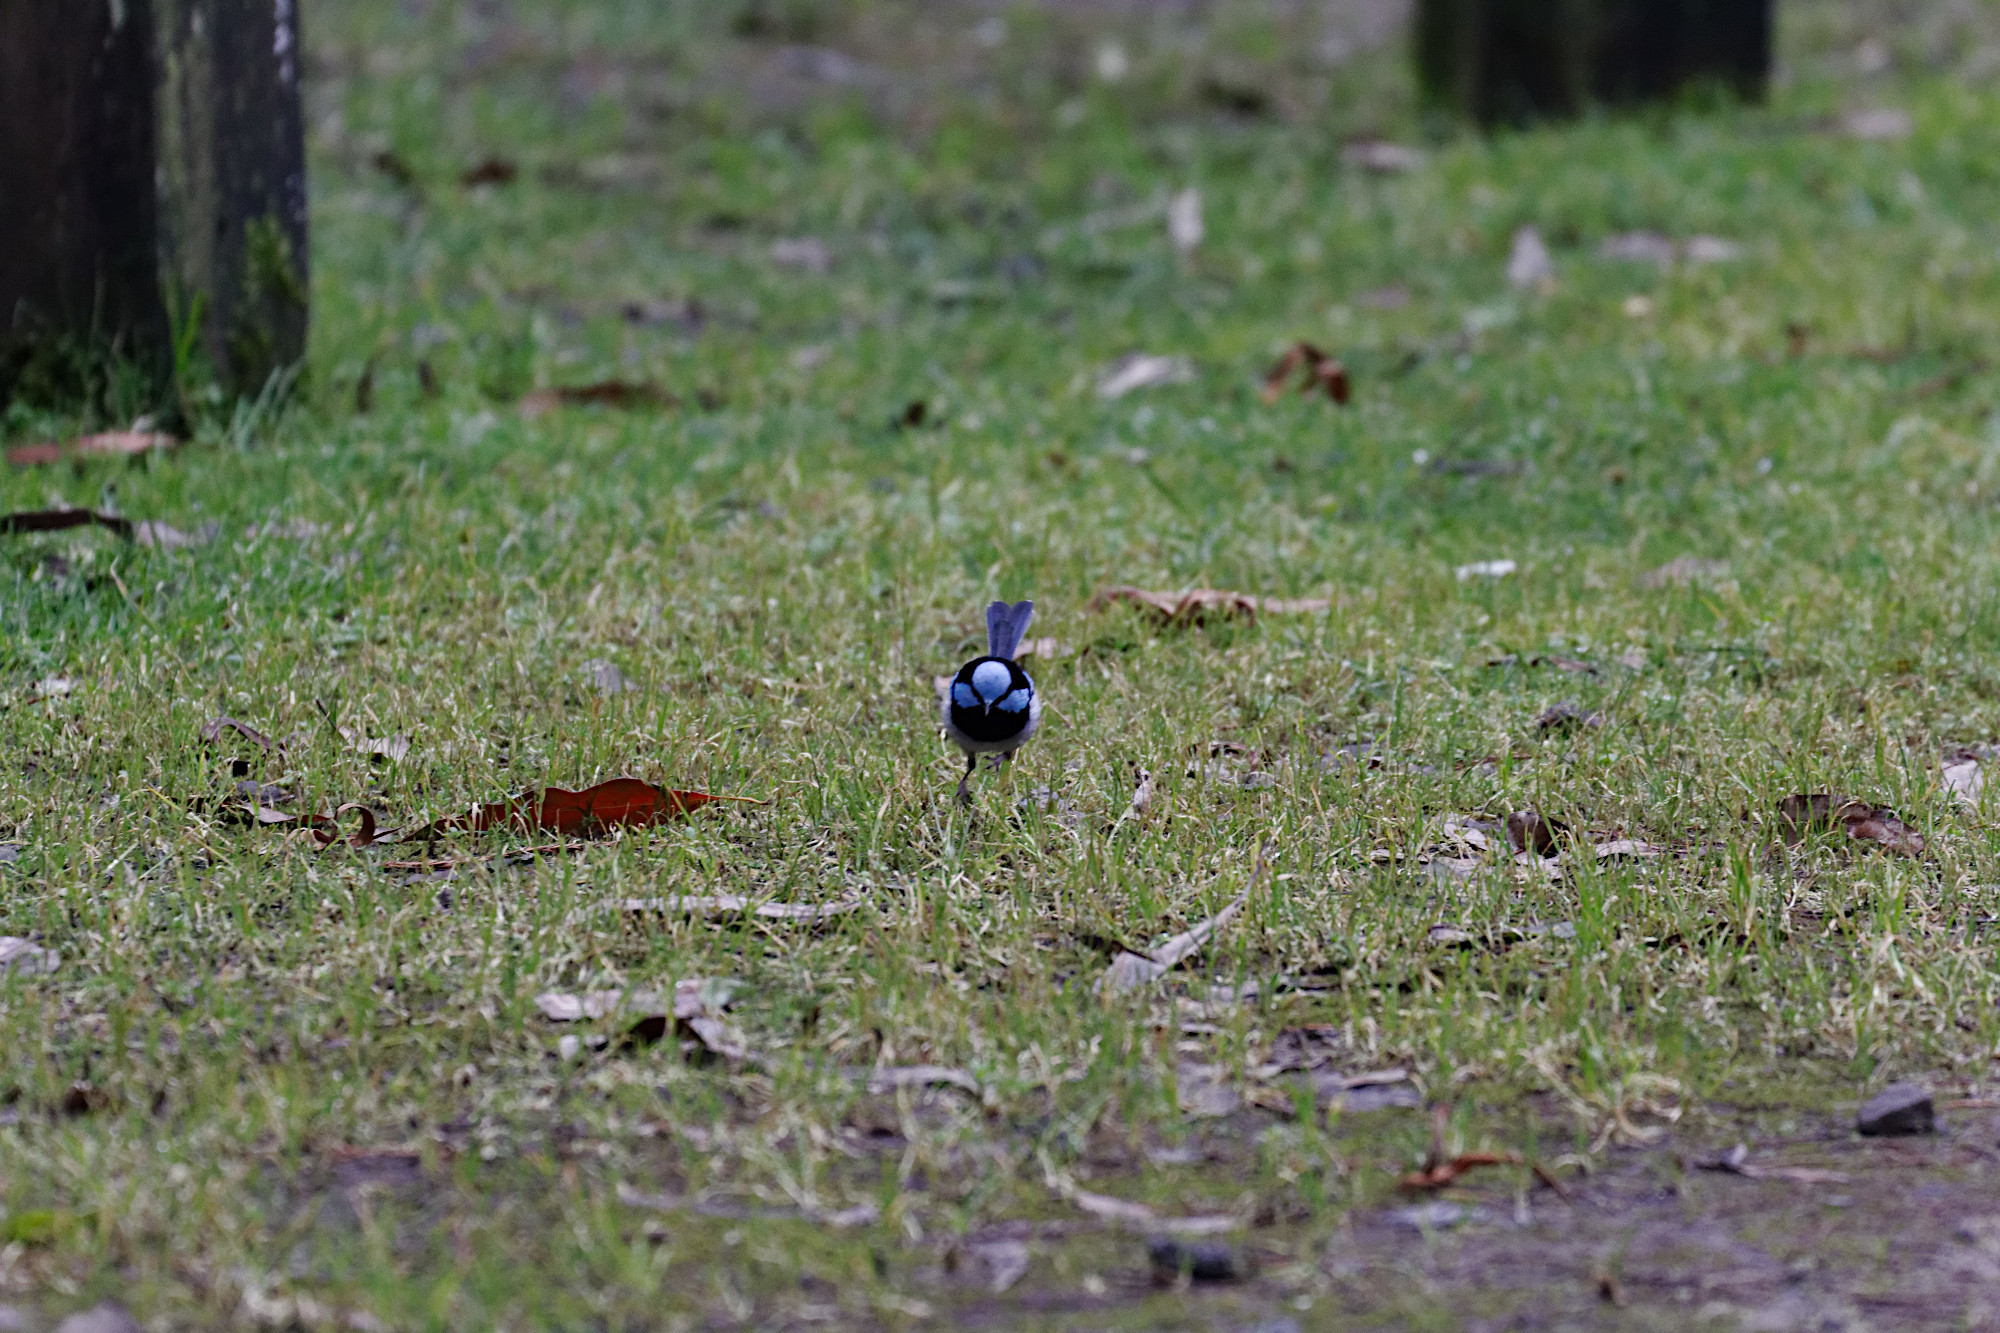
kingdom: Animalia
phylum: Chordata
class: Aves
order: Passeriformes
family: Maluridae
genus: Malurus
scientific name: Malurus cyaneus
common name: Superb fairywren
